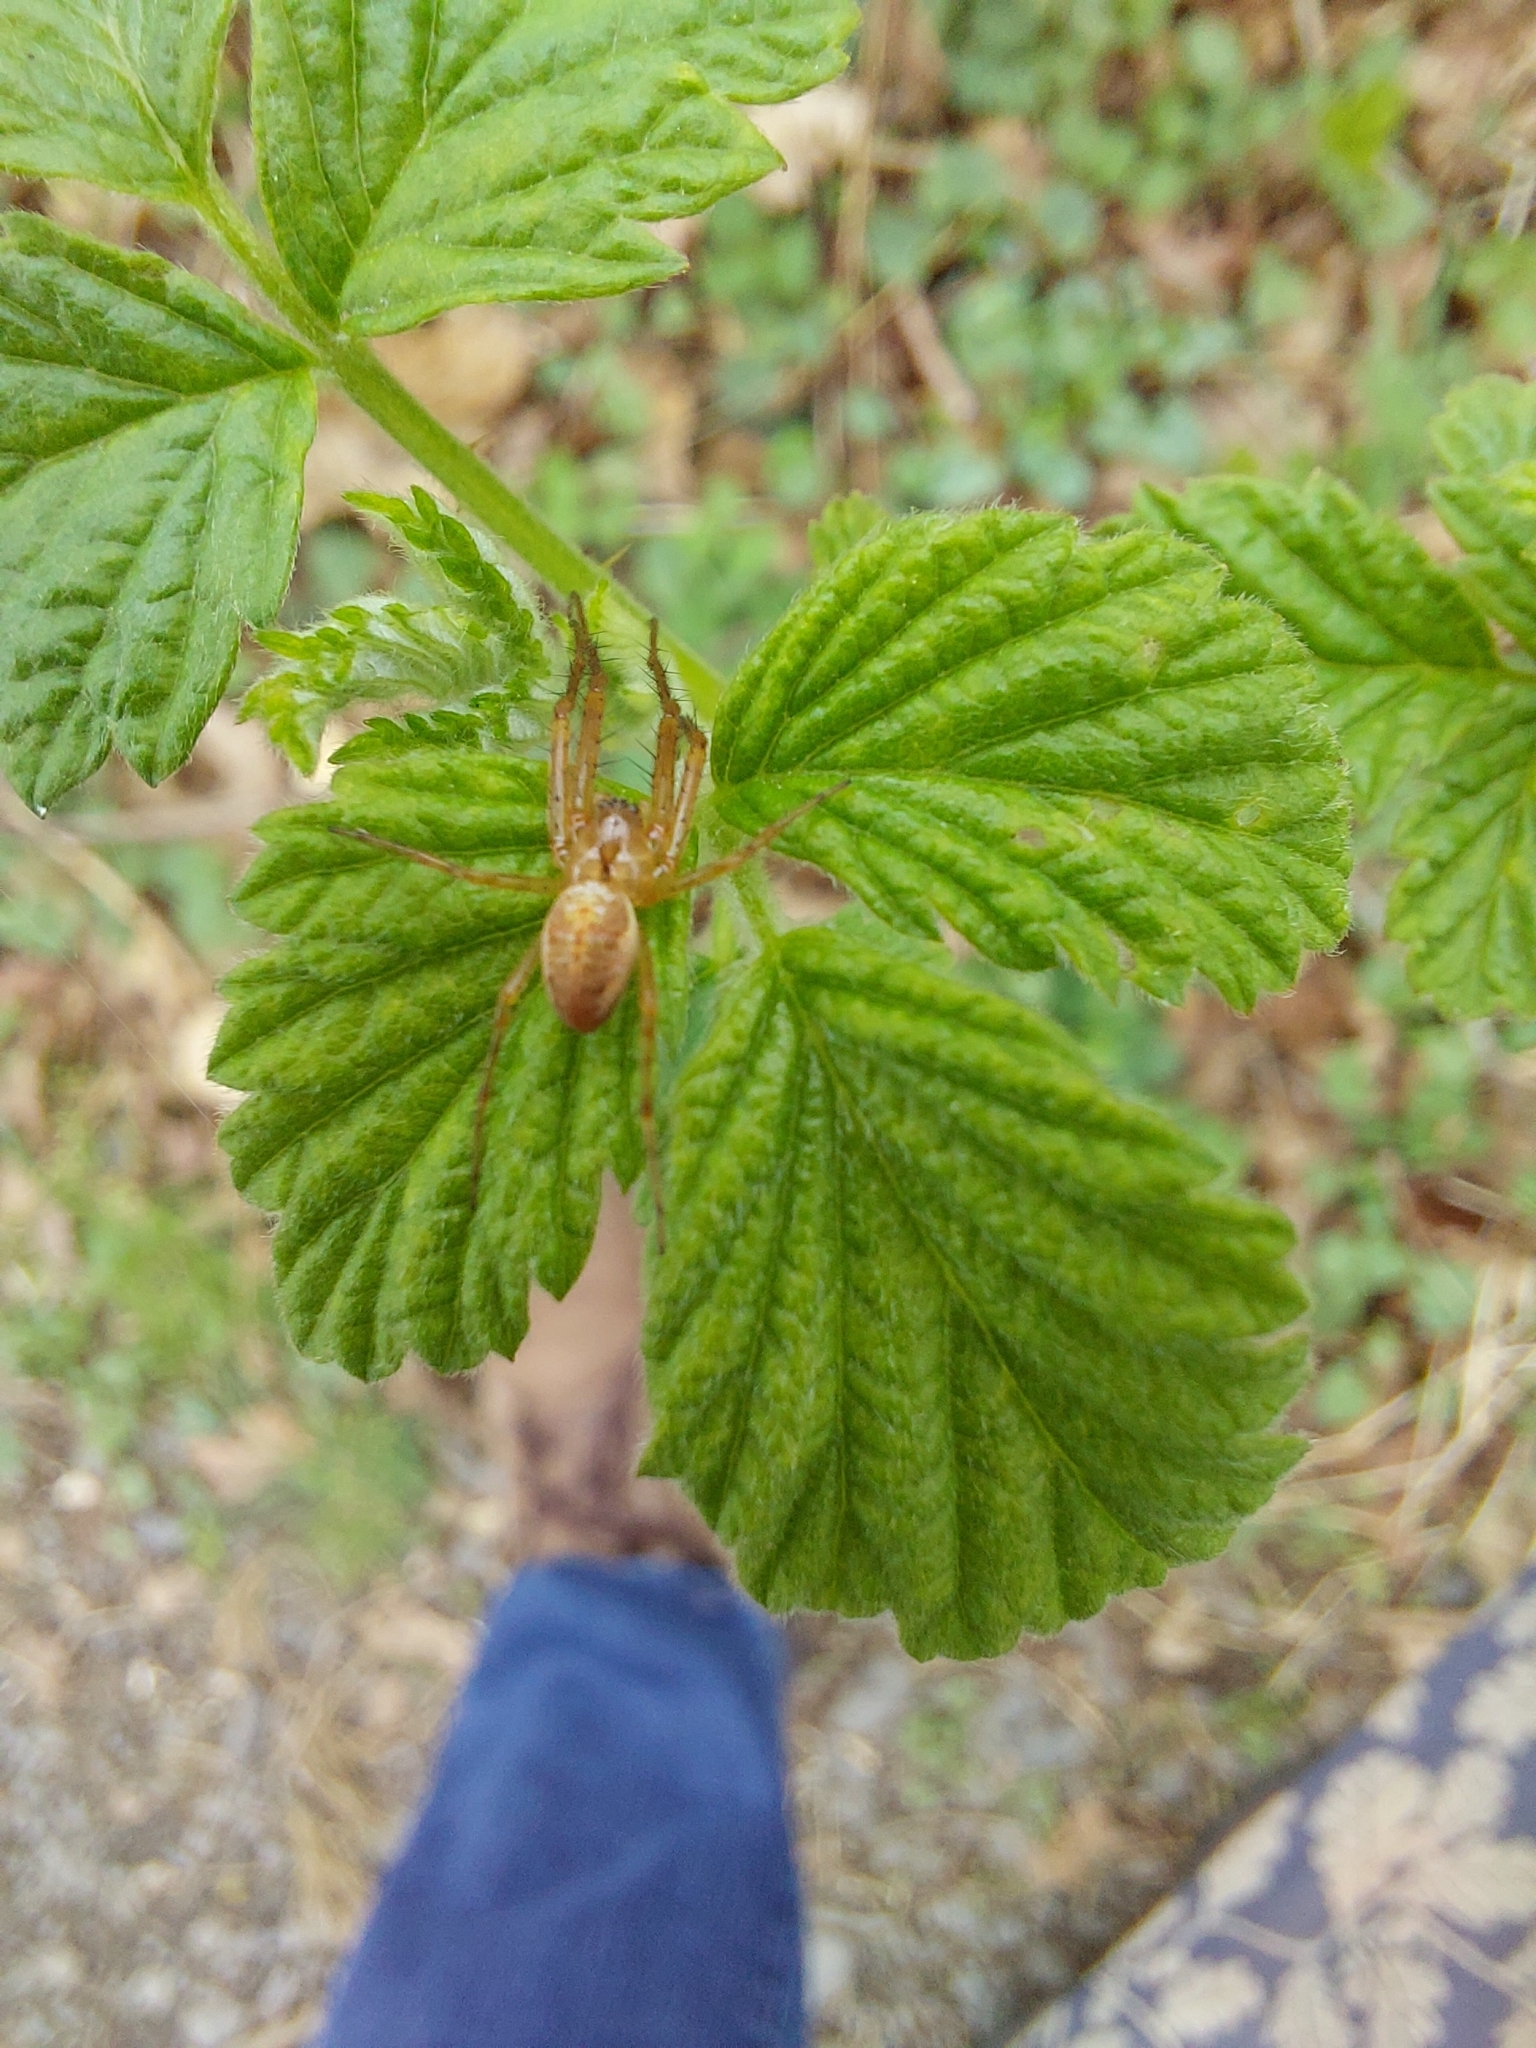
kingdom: Animalia
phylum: Arthropoda
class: Arachnida
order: Araneae
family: Tetragnathidae
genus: Metellina
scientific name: Metellina
